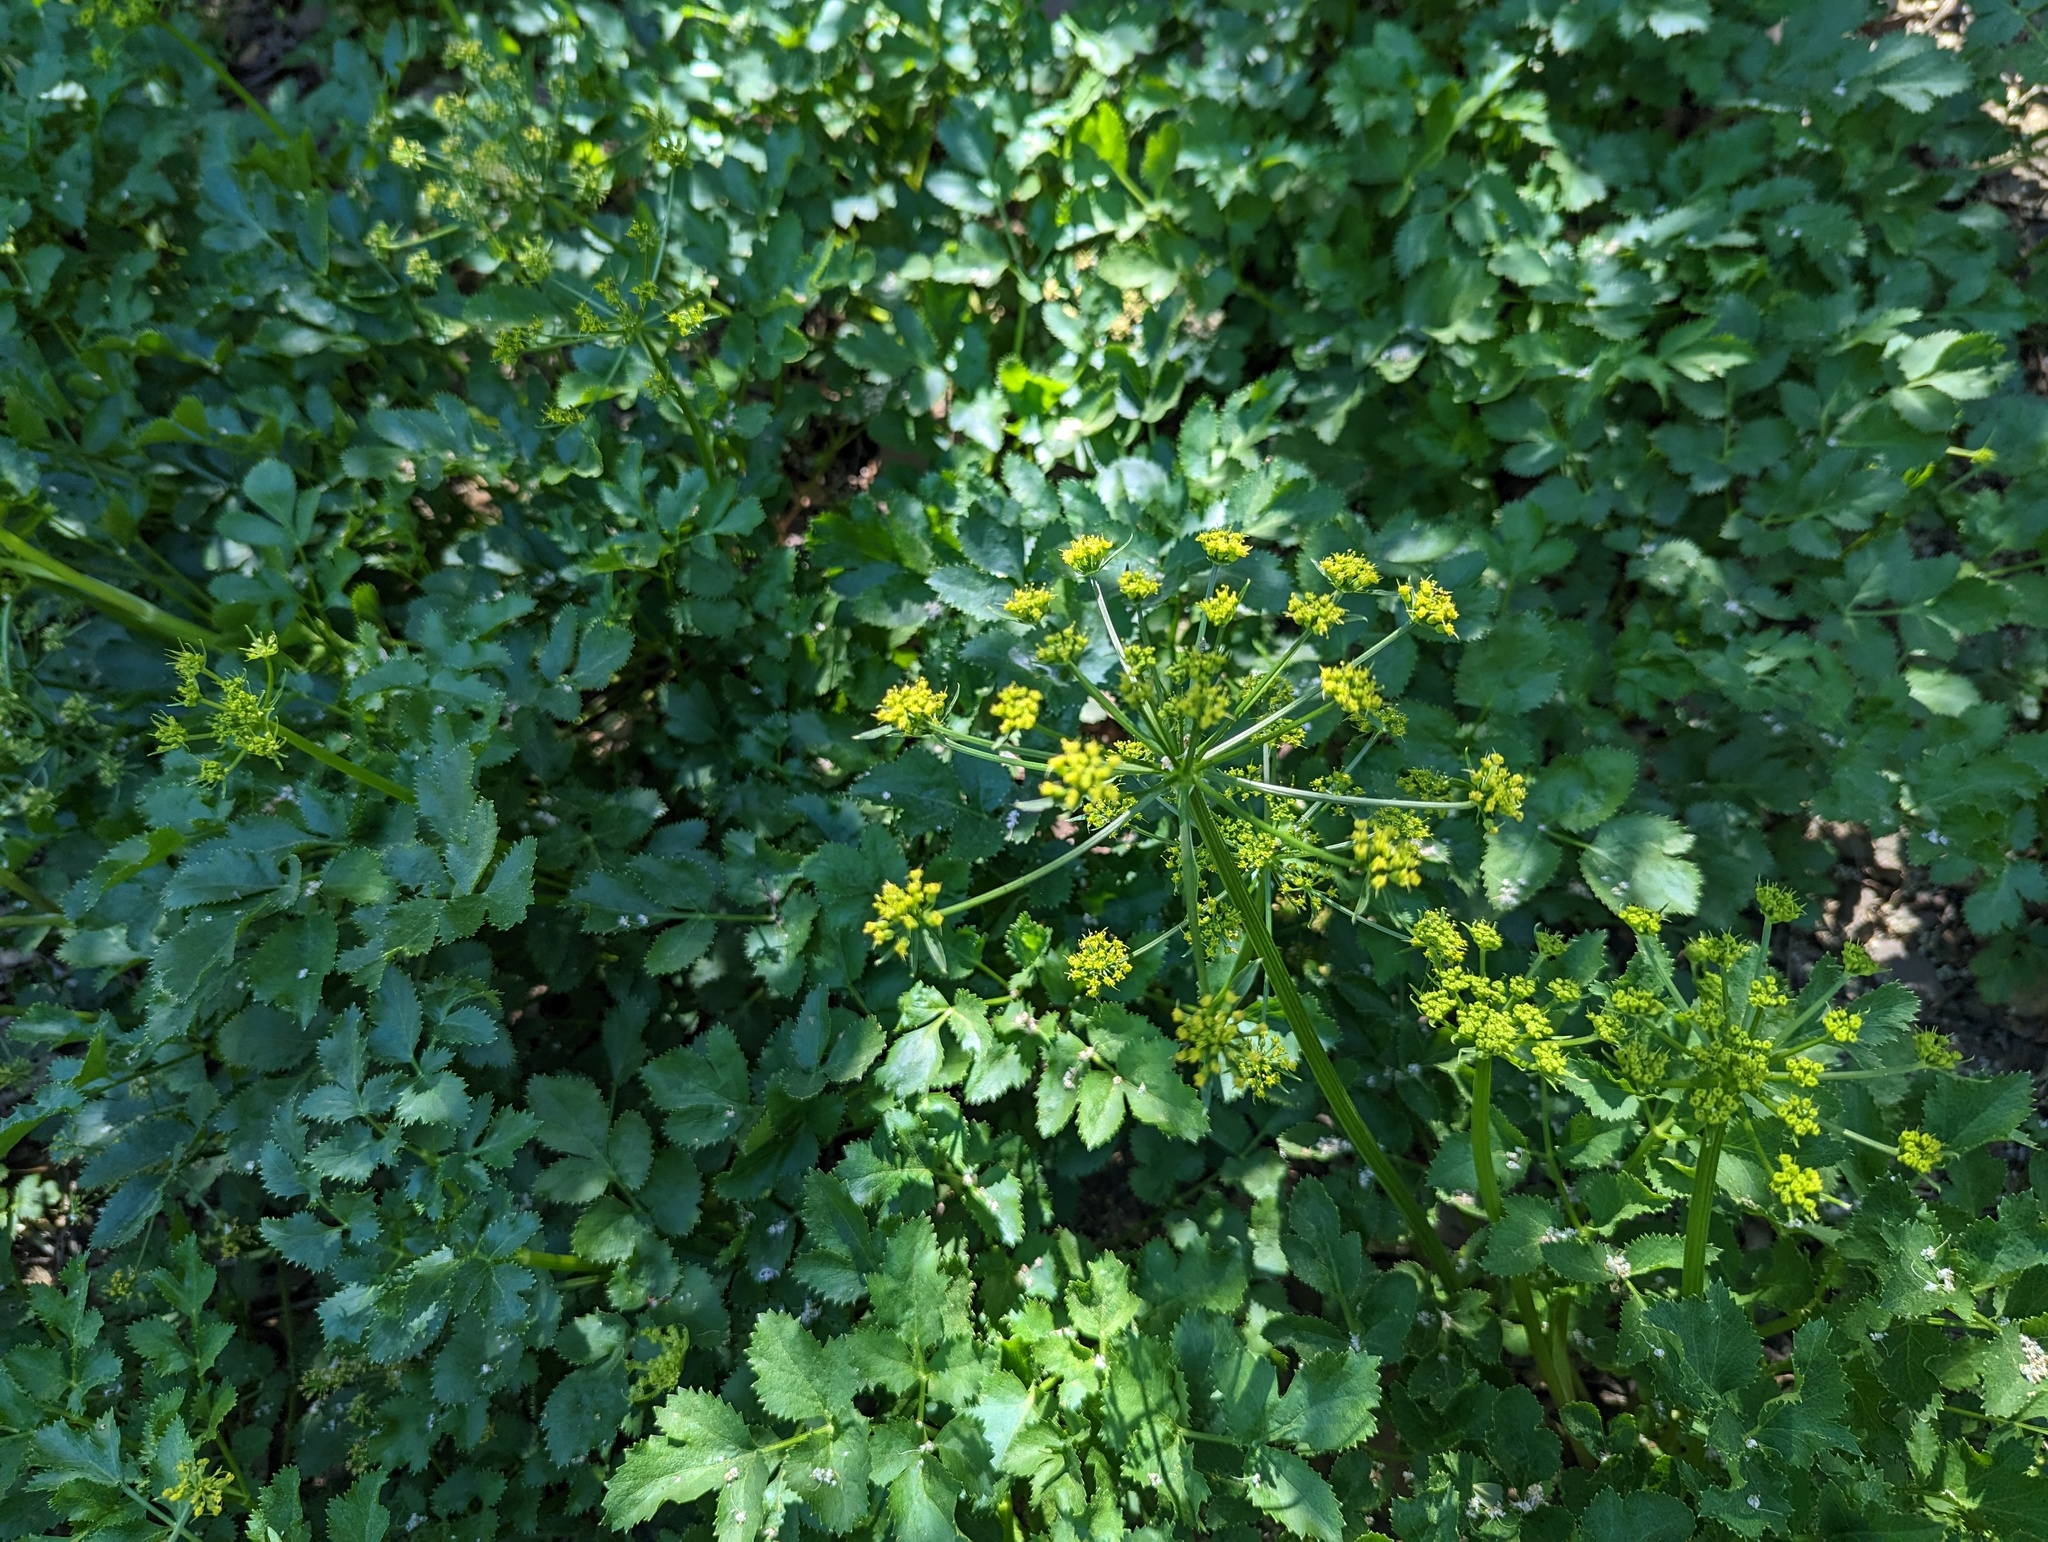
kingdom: Plantae
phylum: Tracheophyta
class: Magnoliopsida
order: Apiales
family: Apiaceae
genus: Tauschia
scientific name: Tauschia hartwegii
